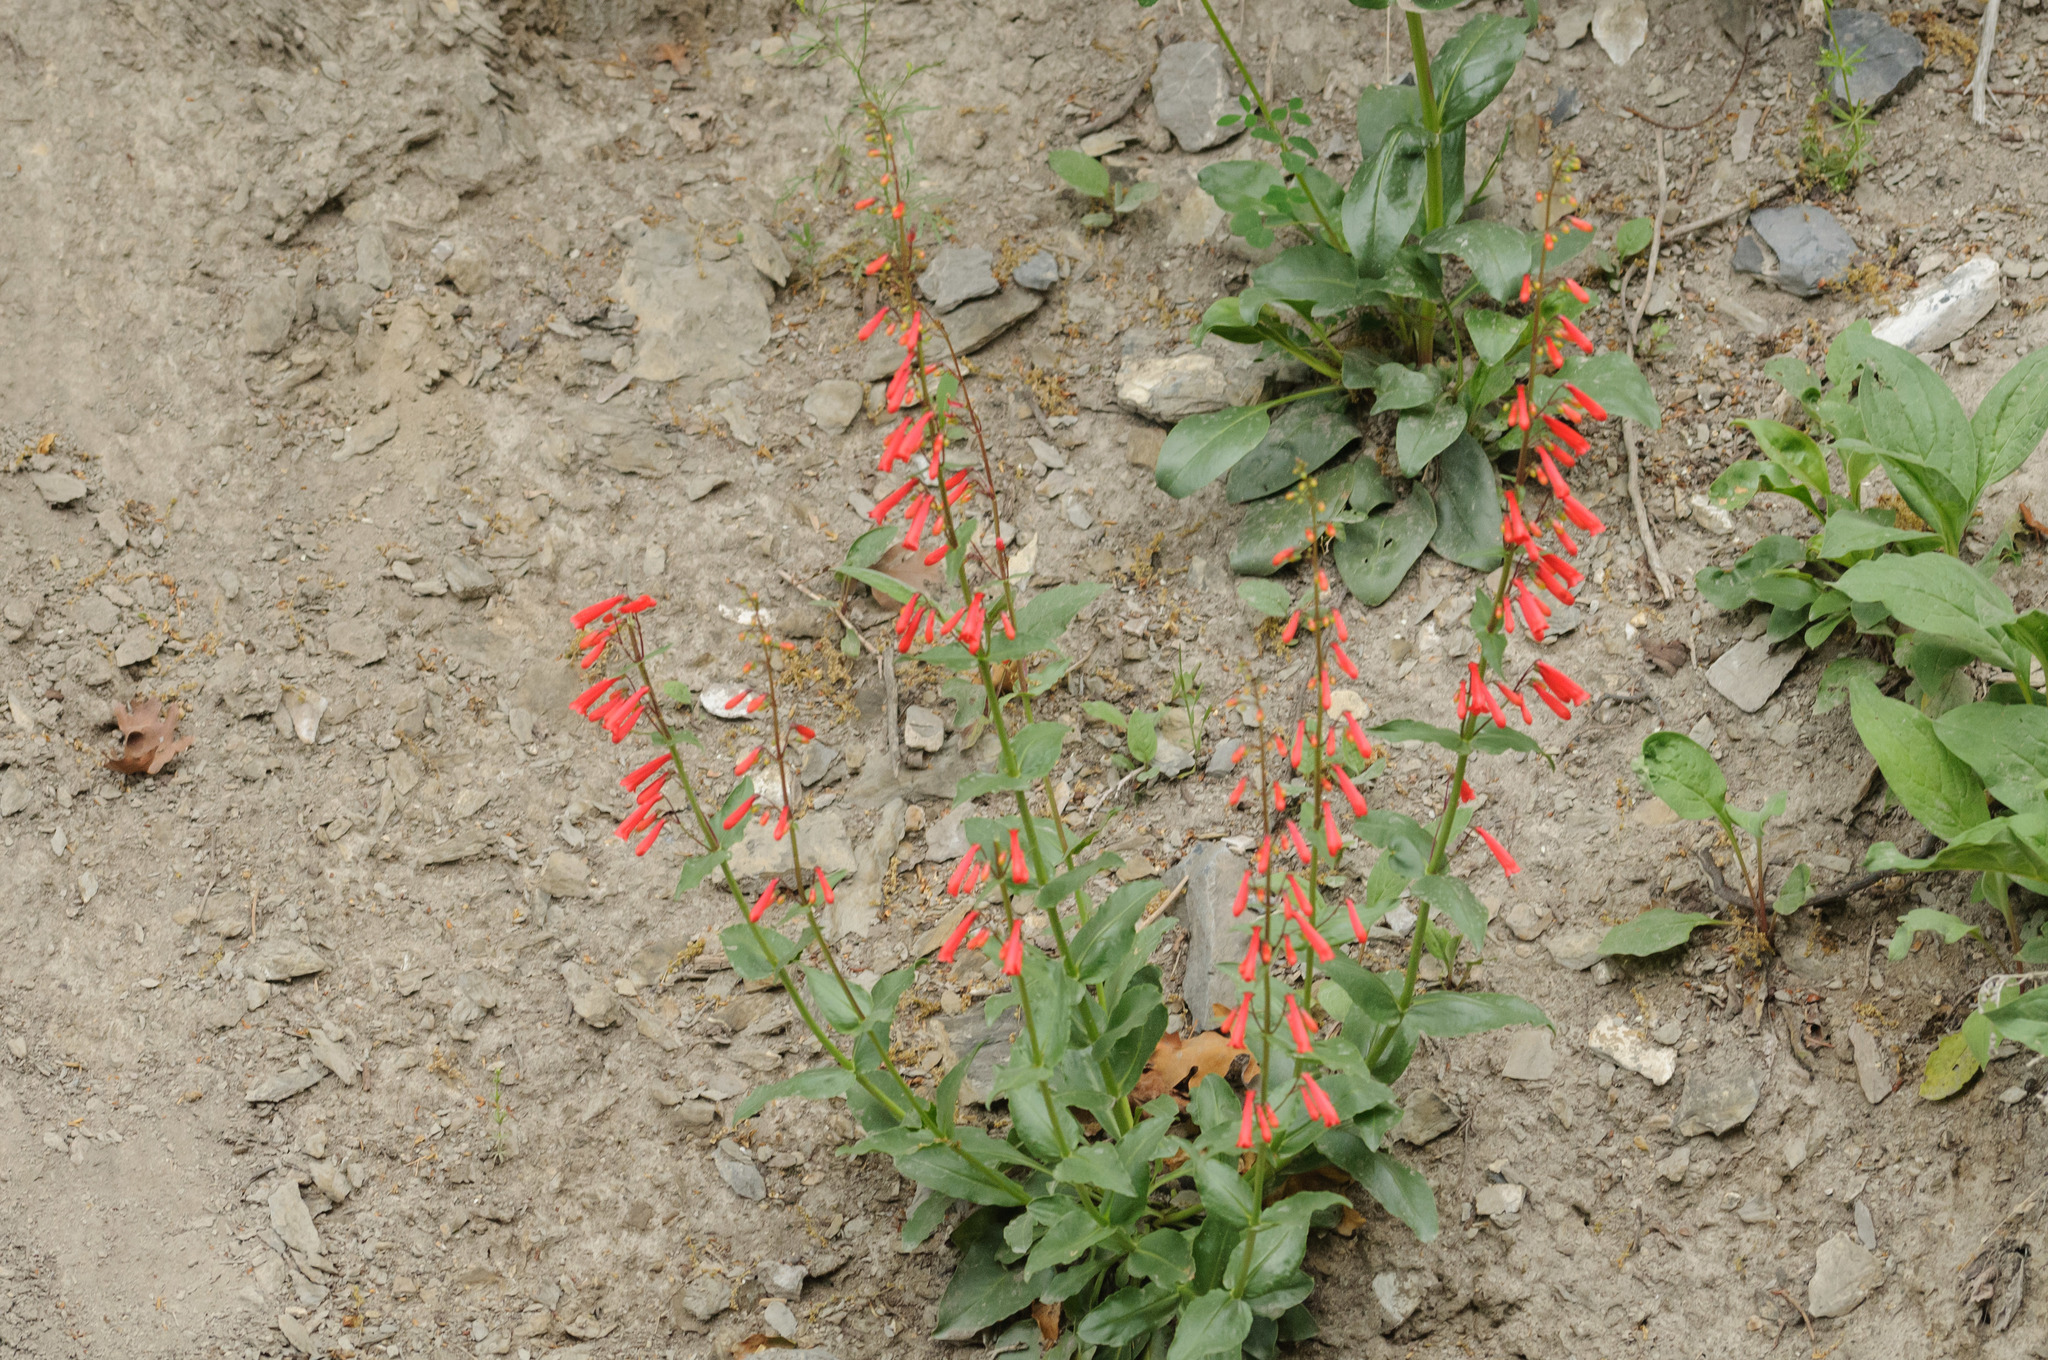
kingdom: Plantae
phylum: Tracheophyta
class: Magnoliopsida
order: Lamiales
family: Plantaginaceae
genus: Penstemon
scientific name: Penstemon eatonii
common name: Eaton's penstemon
